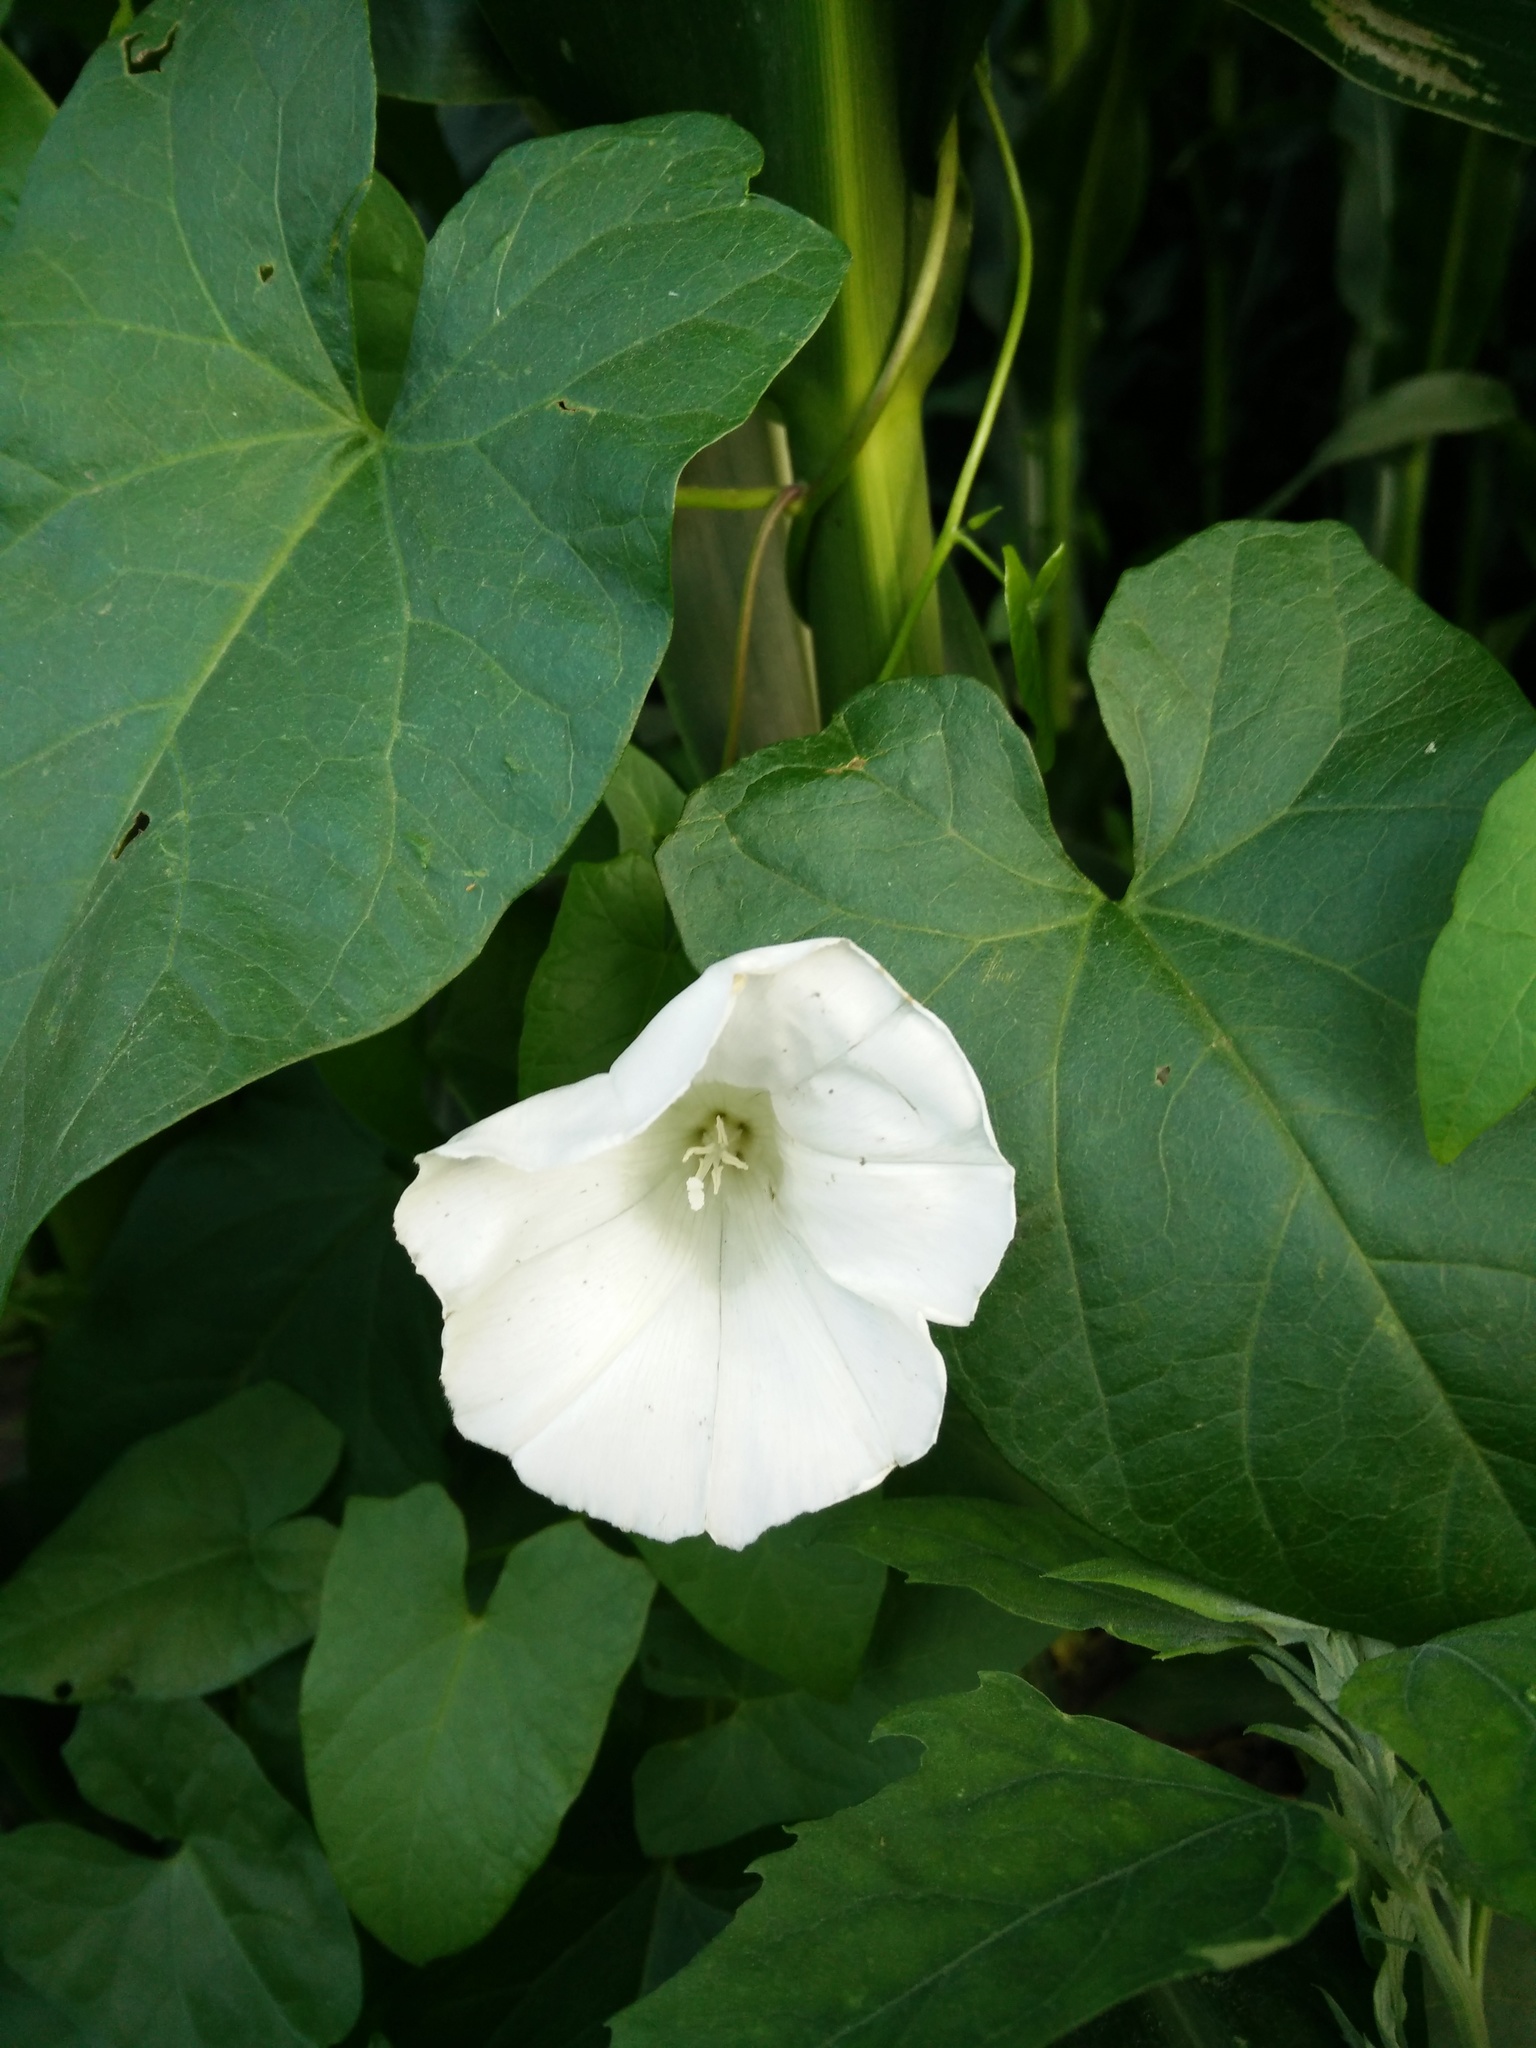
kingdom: Plantae
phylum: Tracheophyta
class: Magnoliopsida
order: Solanales
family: Convolvulaceae
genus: Calystegia
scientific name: Calystegia sepium
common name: Hedge bindweed
